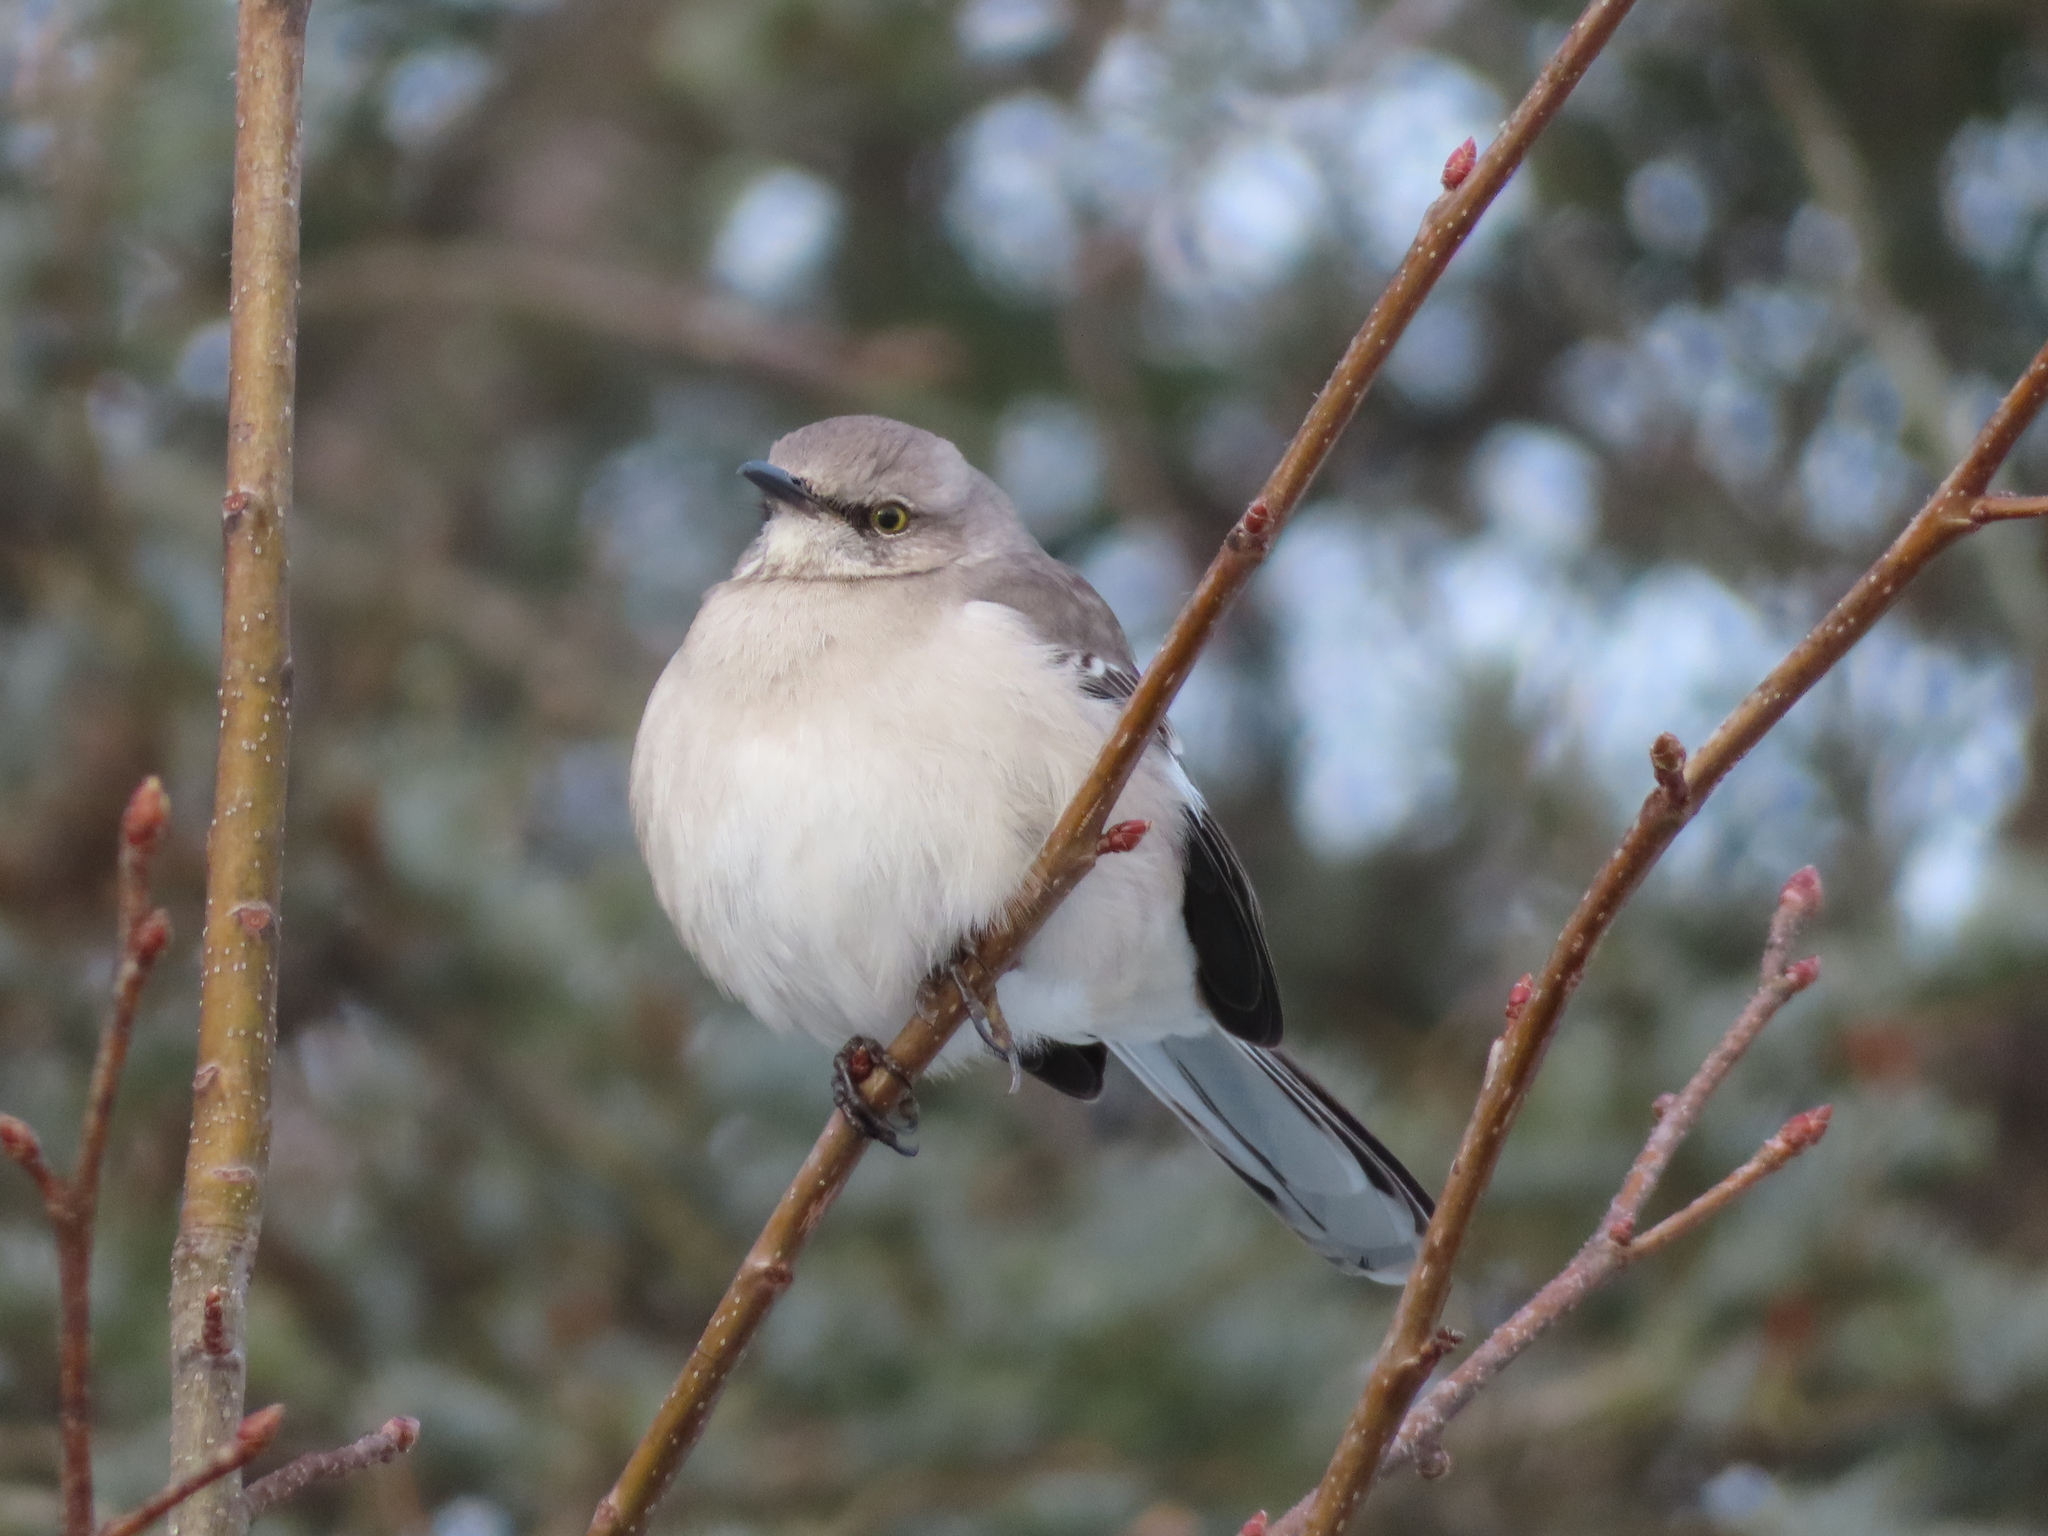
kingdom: Animalia
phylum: Chordata
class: Aves
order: Passeriformes
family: Mimidae
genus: Mimus
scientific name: Mimus polyglottos
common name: Northern mockingbird
